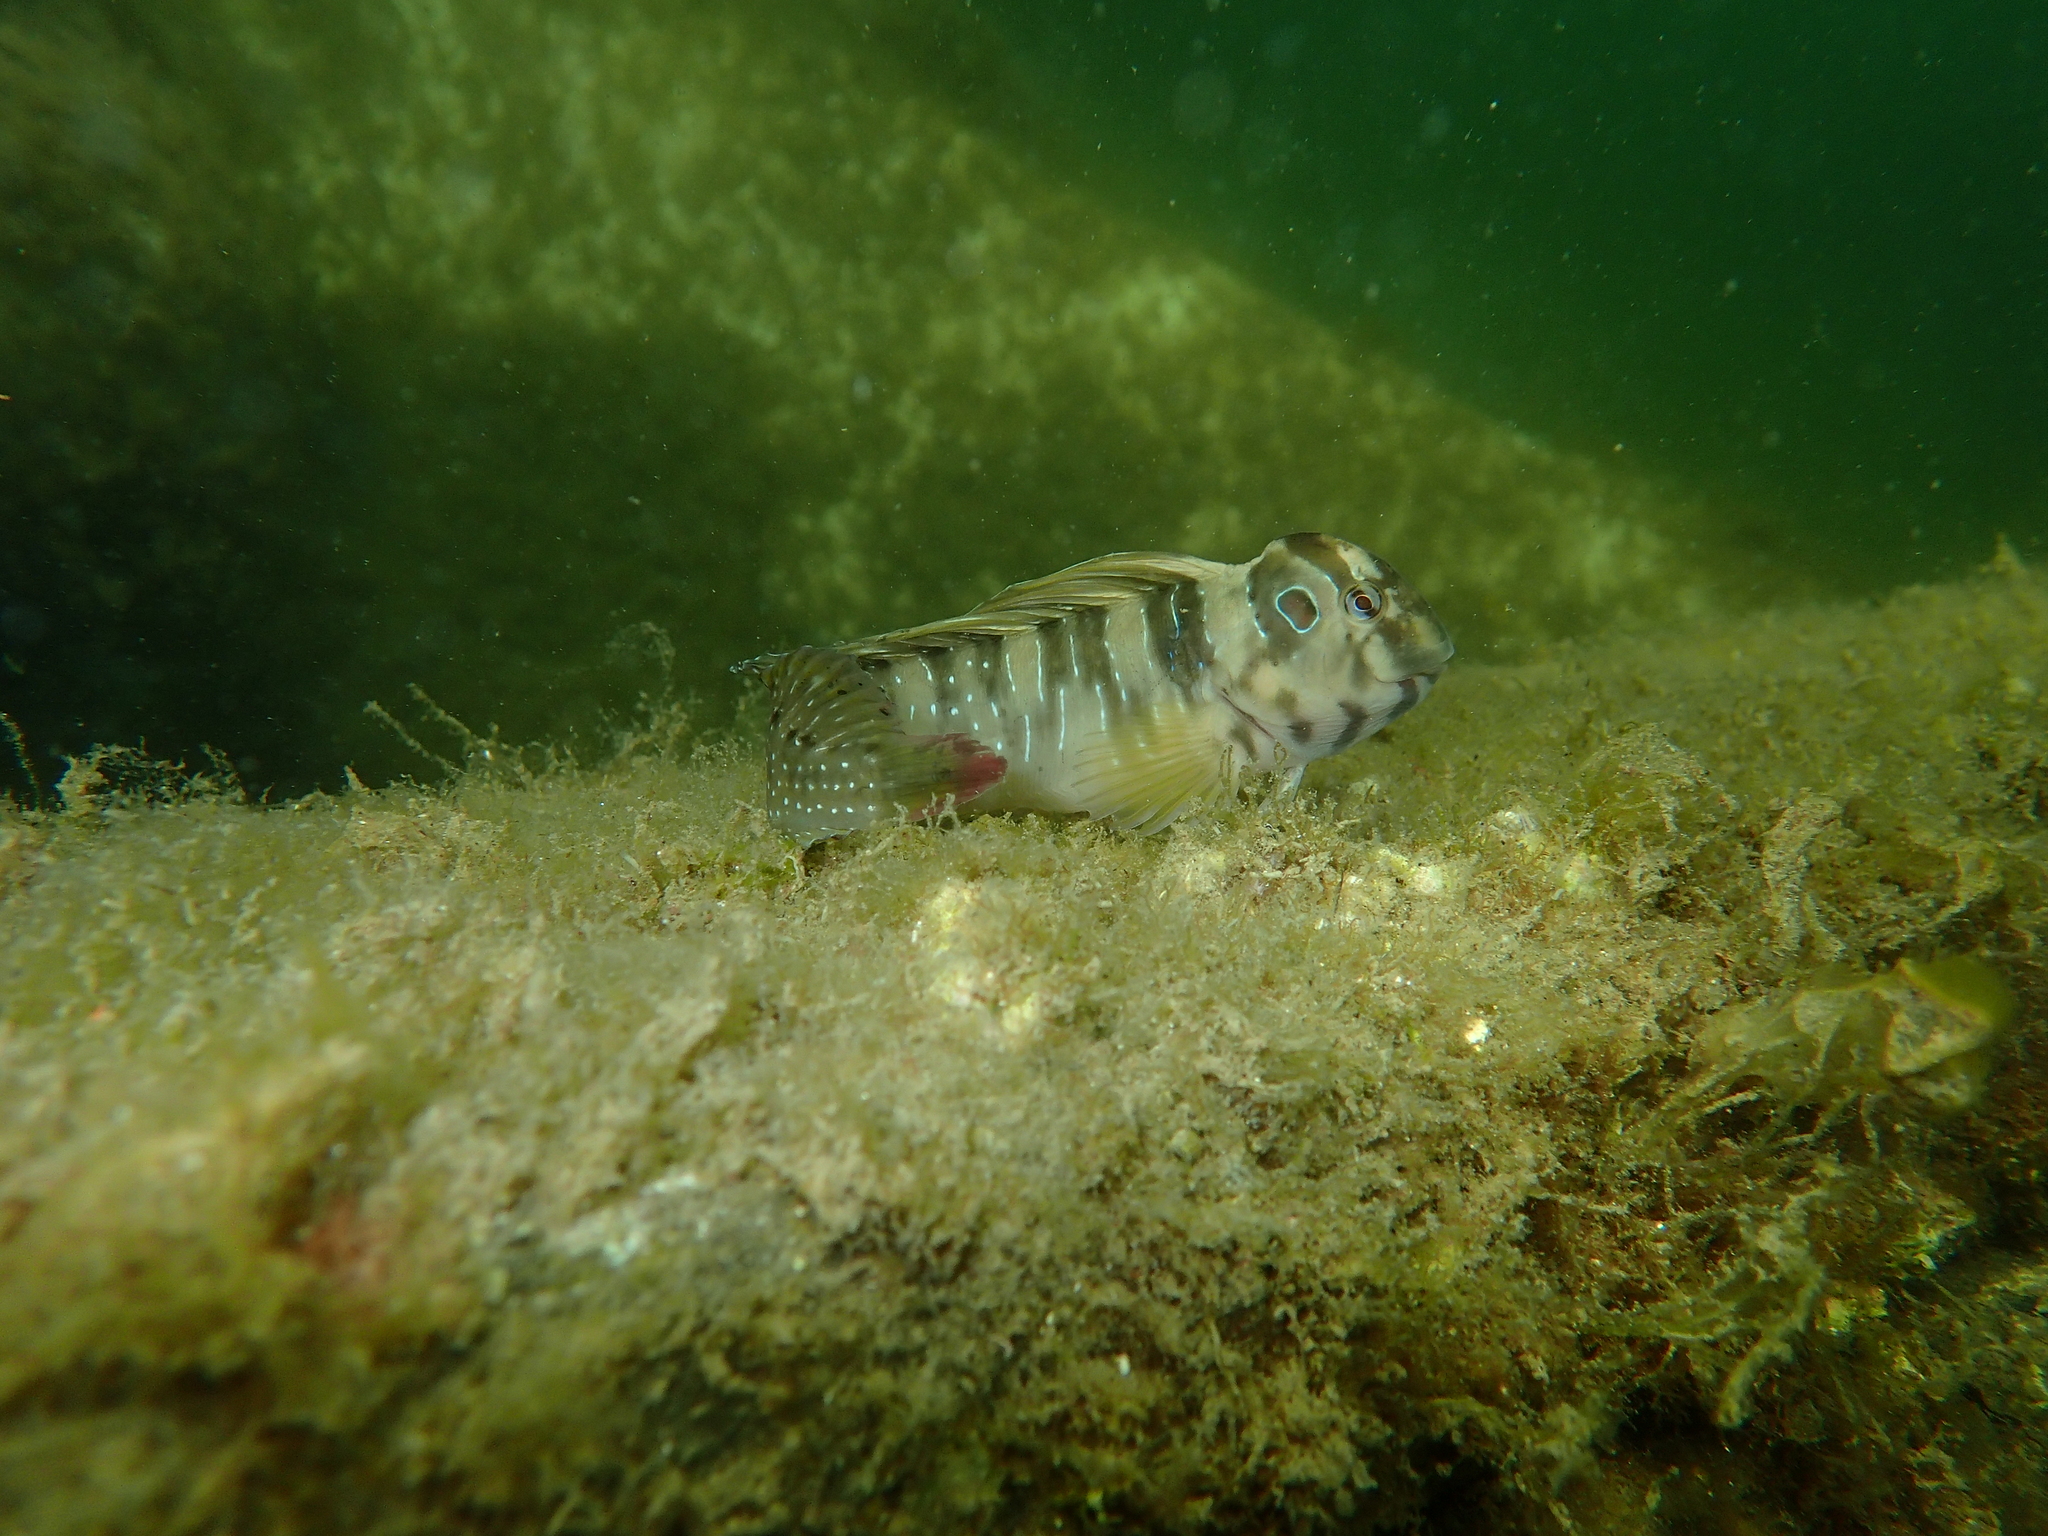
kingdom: Animalia
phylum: Chordata
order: Perciformes
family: Blenniidae
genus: Salaria
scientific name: Salaria pavo
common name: Peacock blenny
